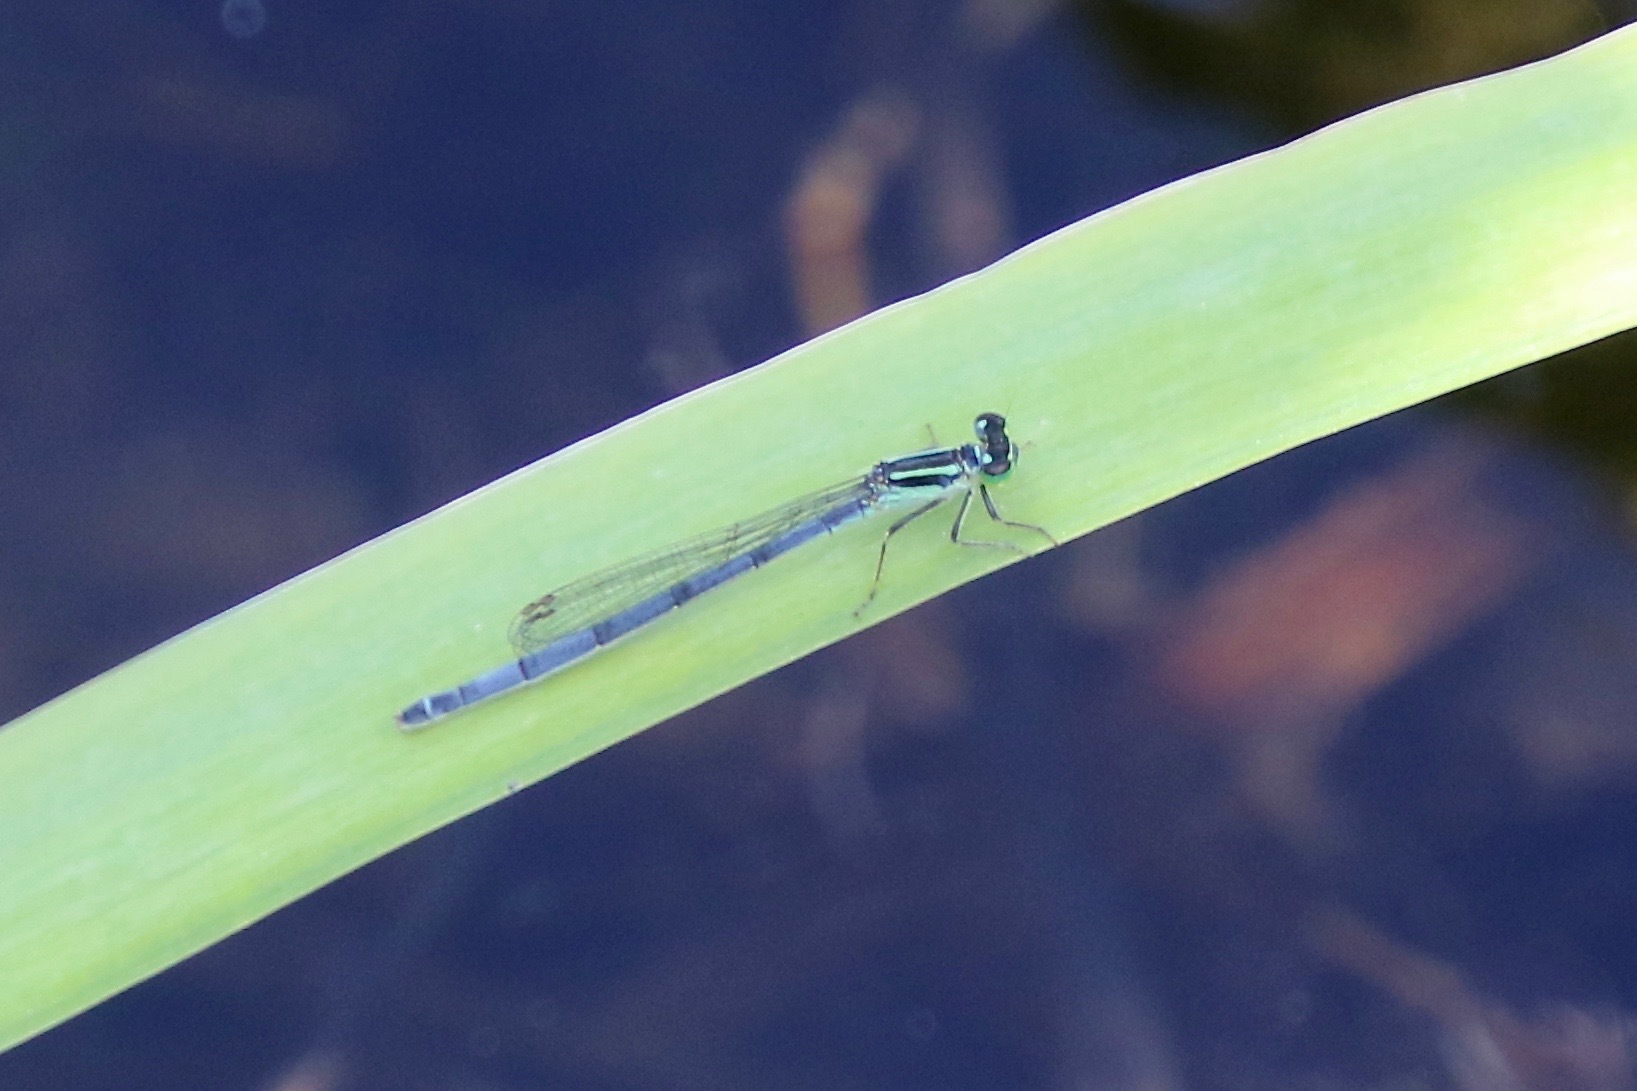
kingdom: Animalia
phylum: Arthropoda
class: Insecta
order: Odonata
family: Coenagrionidae
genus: Ischnura
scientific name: Ischnura verticalis
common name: Eastern forktail
